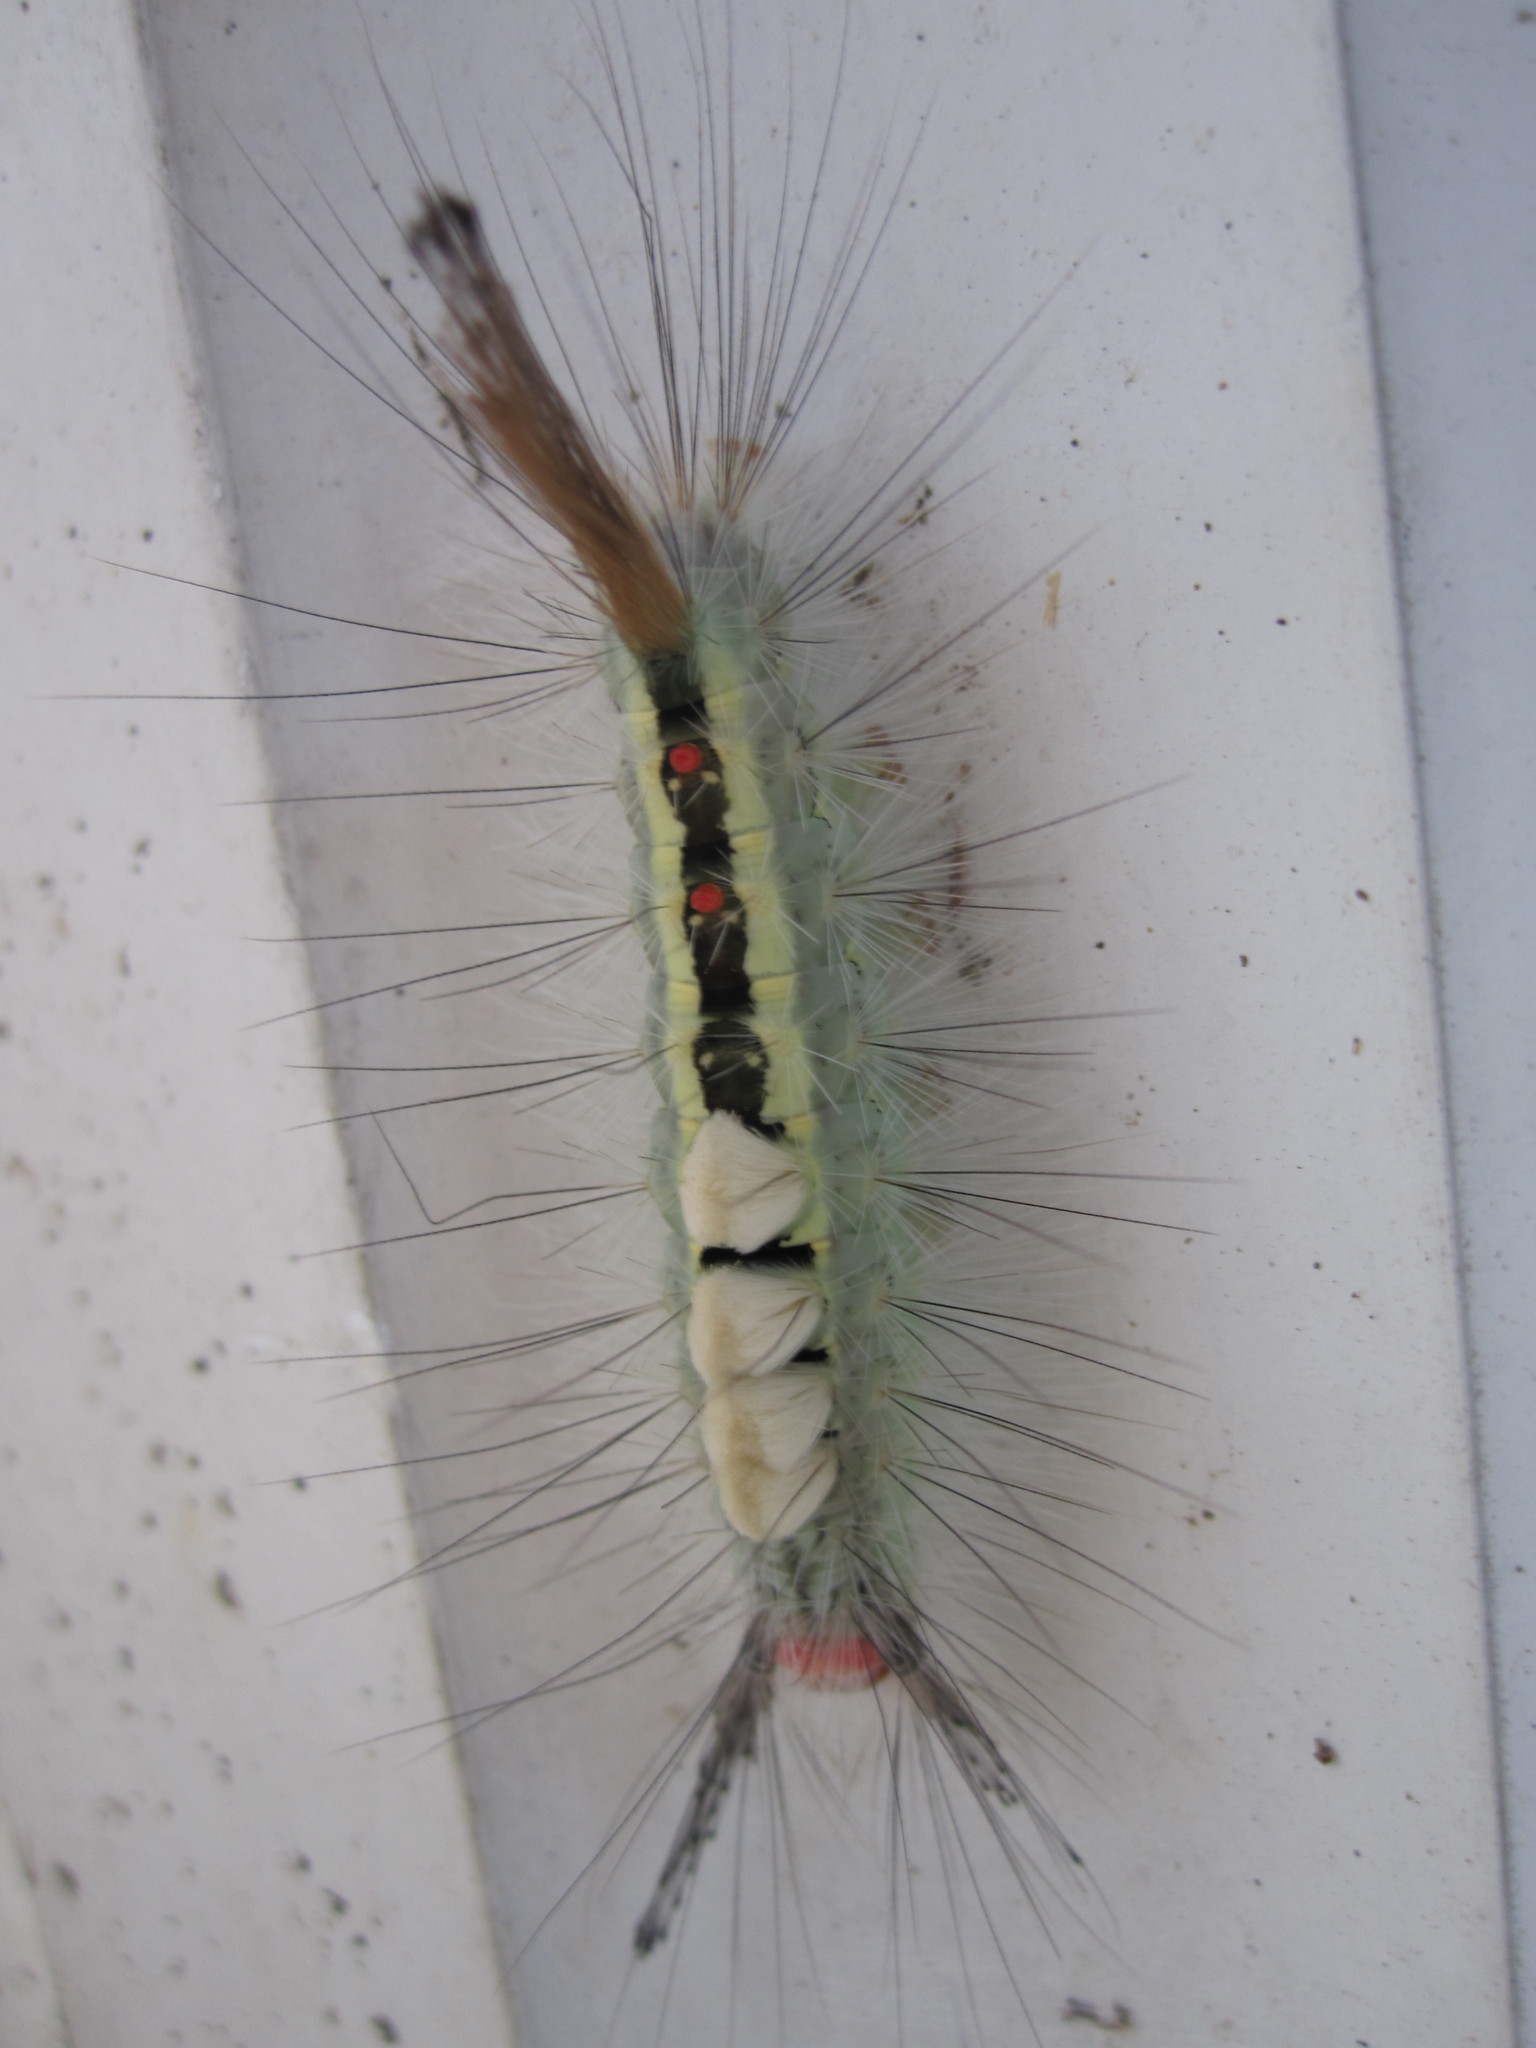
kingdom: Animalia
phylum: Arthropoda
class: Insecta
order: Lepidoptera
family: Erebidae
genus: Orgyia
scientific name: Orgyia leucostigma
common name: White-marked tussock moth
